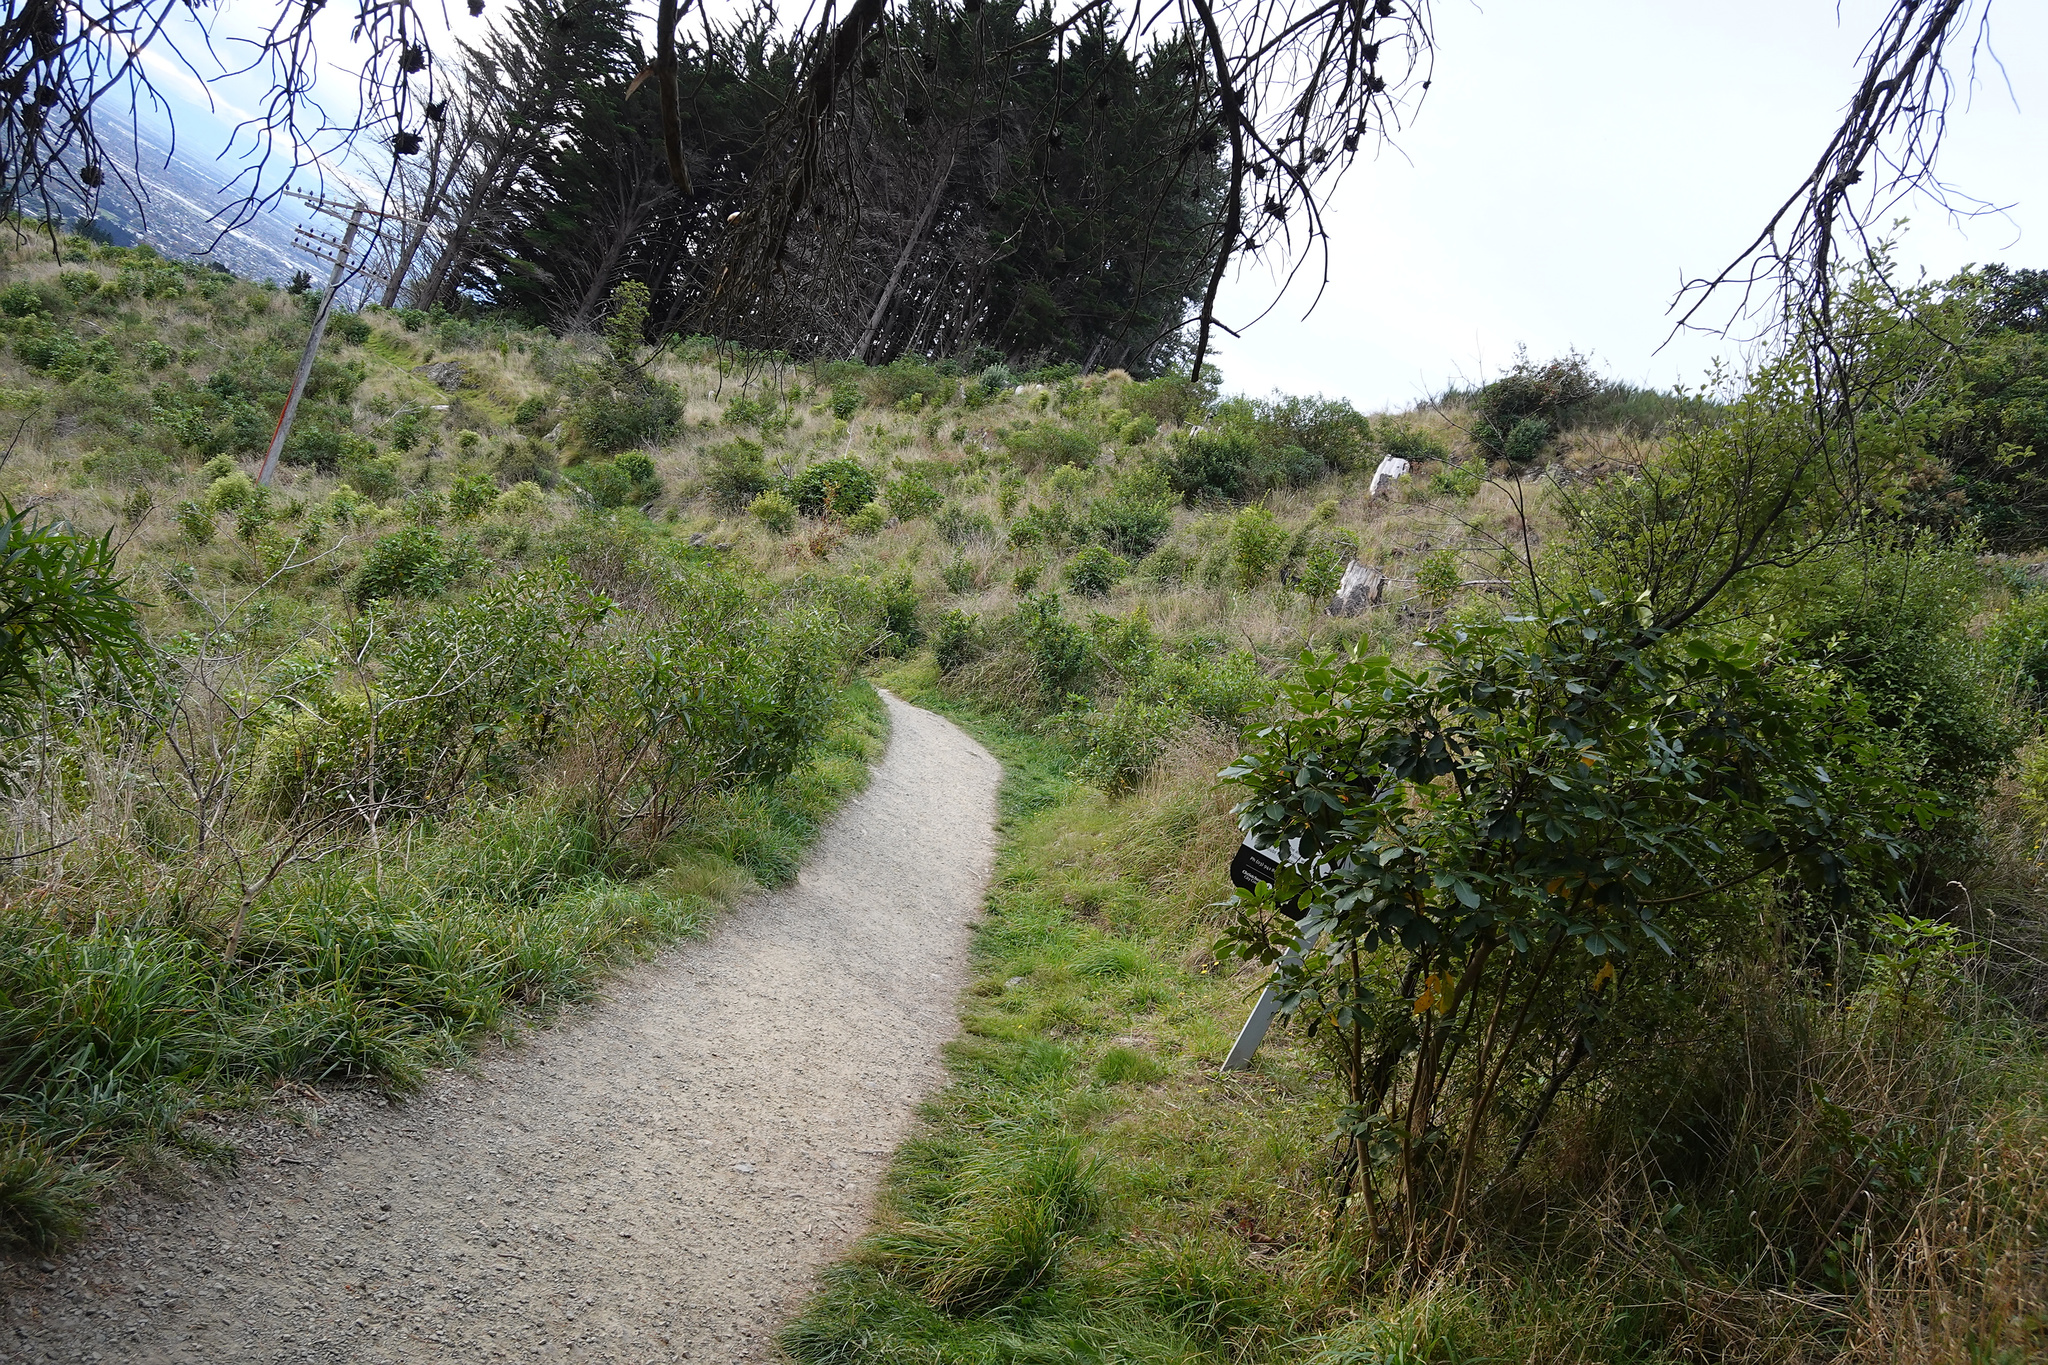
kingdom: Plantae
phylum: Tracheophyta
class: Magnoliopsida
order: Apiales
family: Araliaceae
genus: Neopanax
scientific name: Neopanax arboreus
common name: Five-fingers
